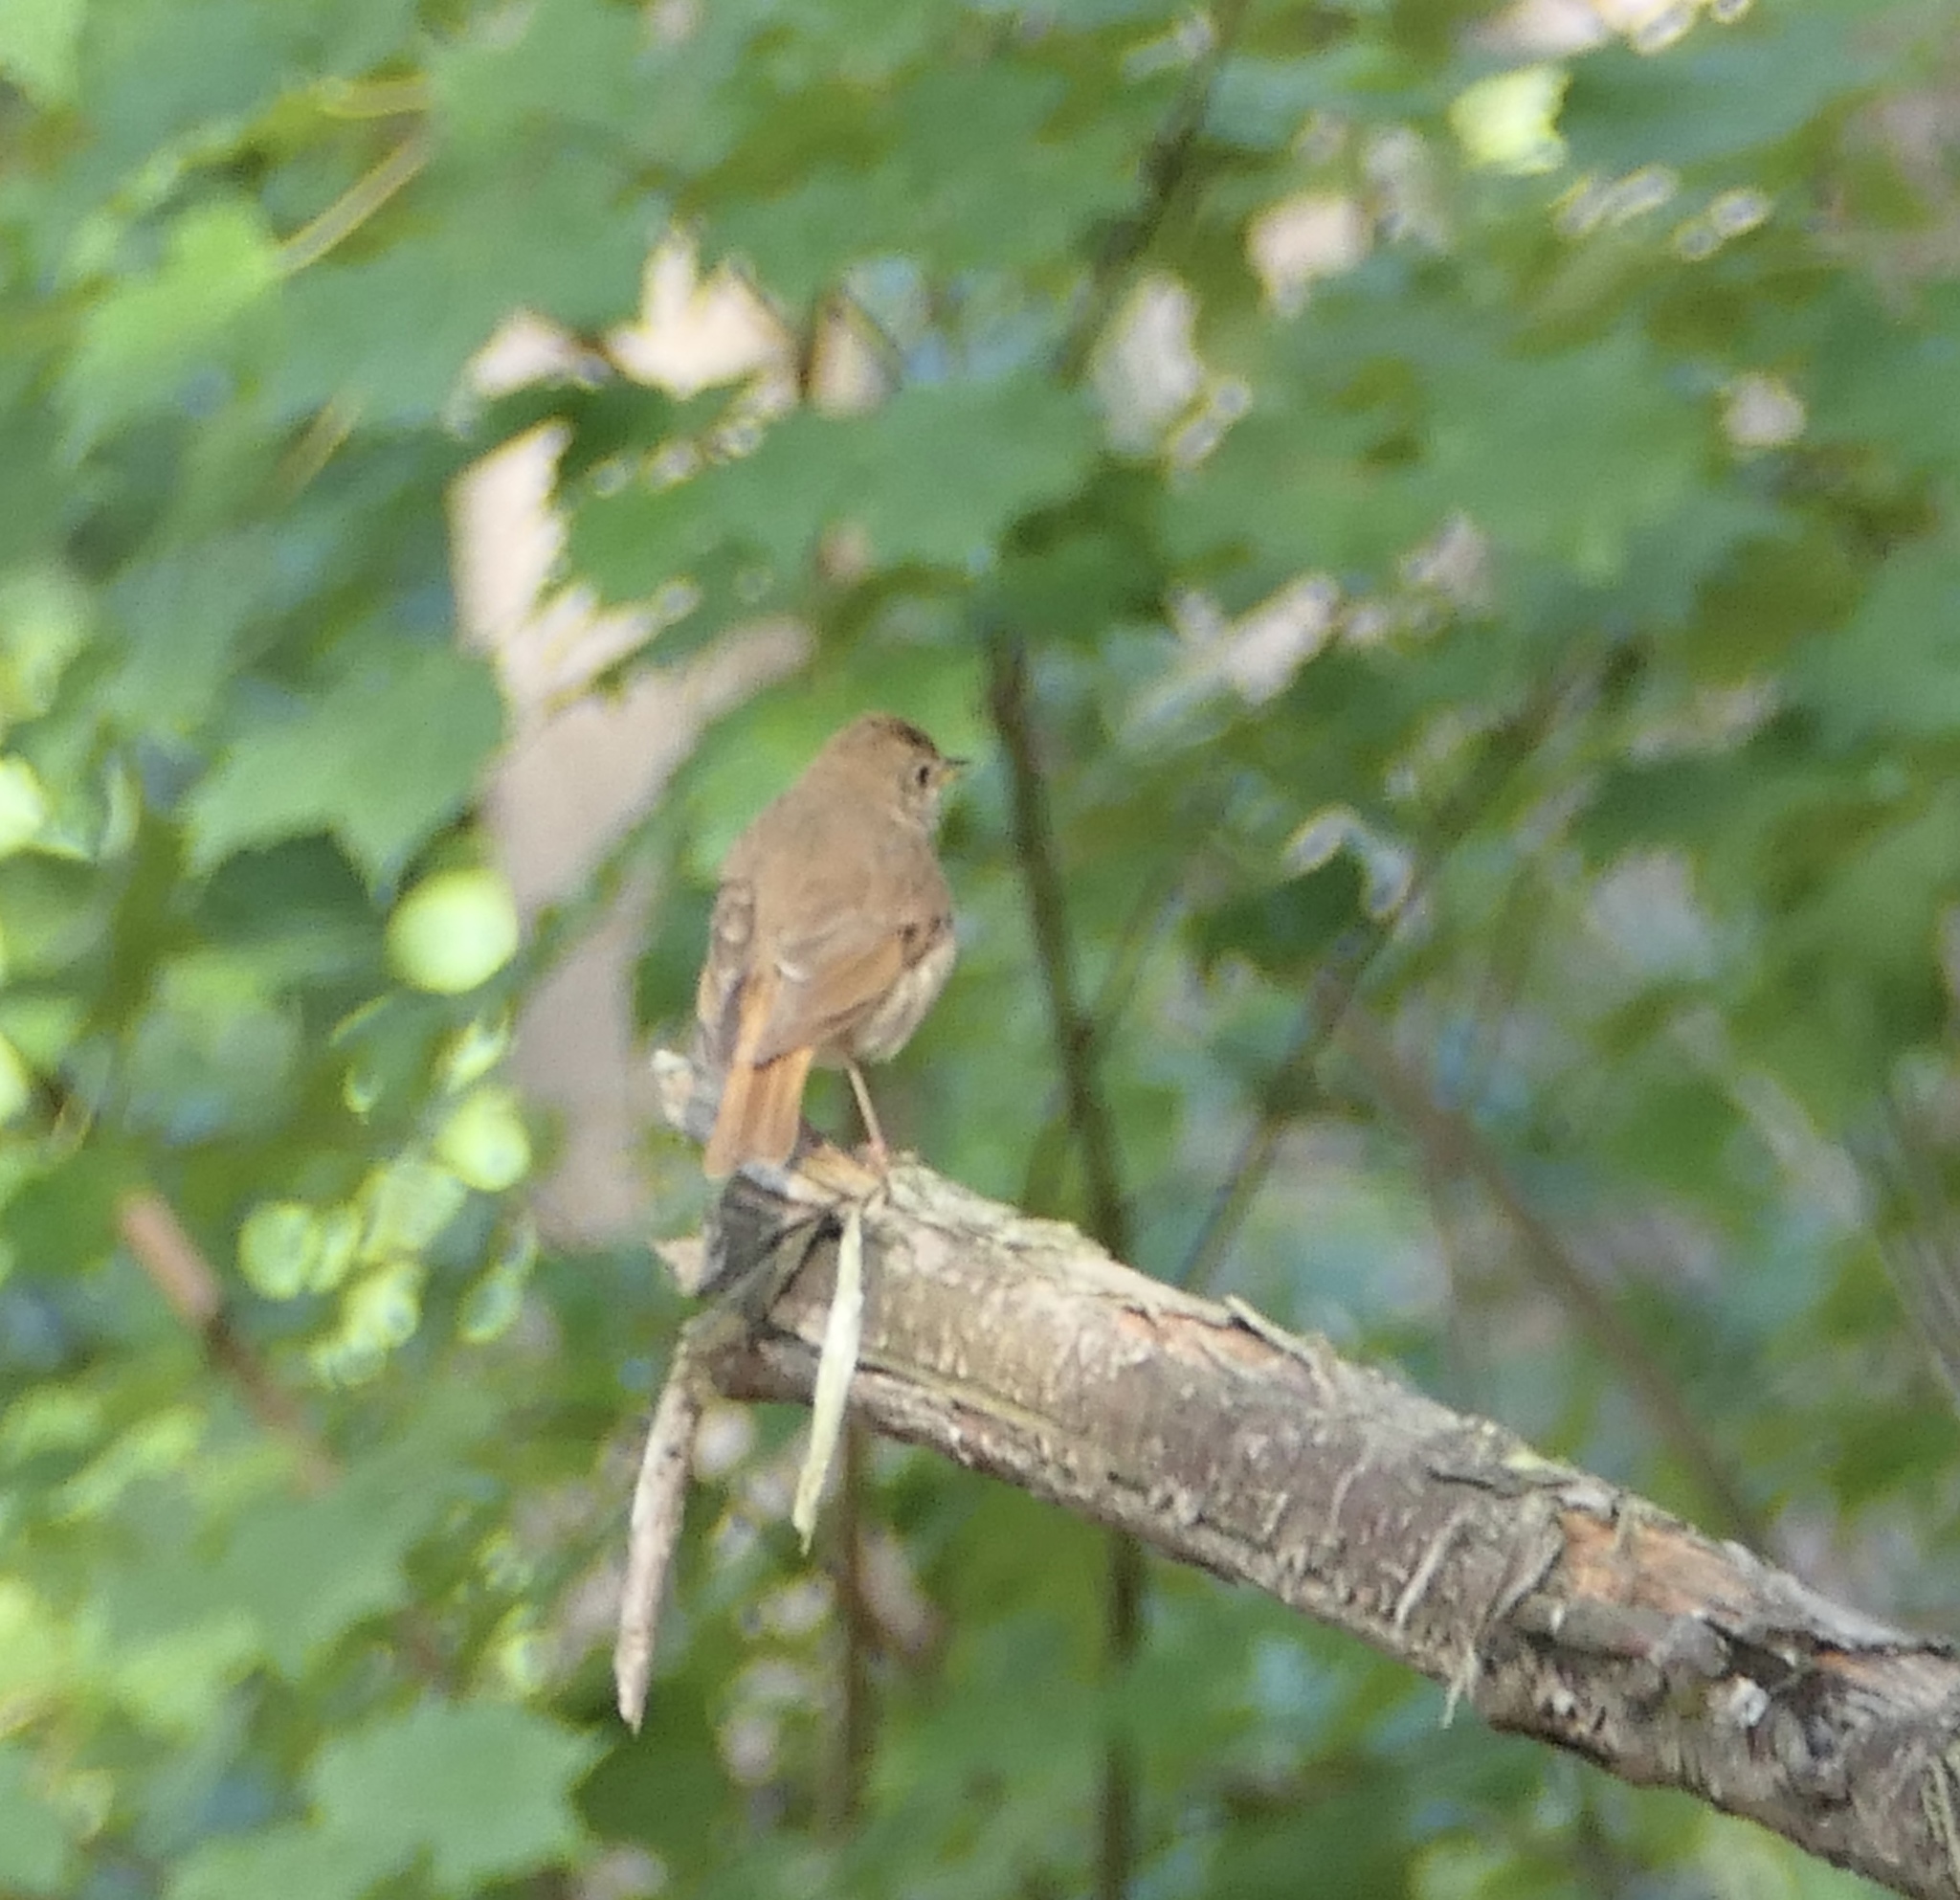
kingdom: Animalia
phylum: Chordata
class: Aves
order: Passeriformes
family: Turdidae
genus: Catharus
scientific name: Catharus guttatus
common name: Hermit thrush
